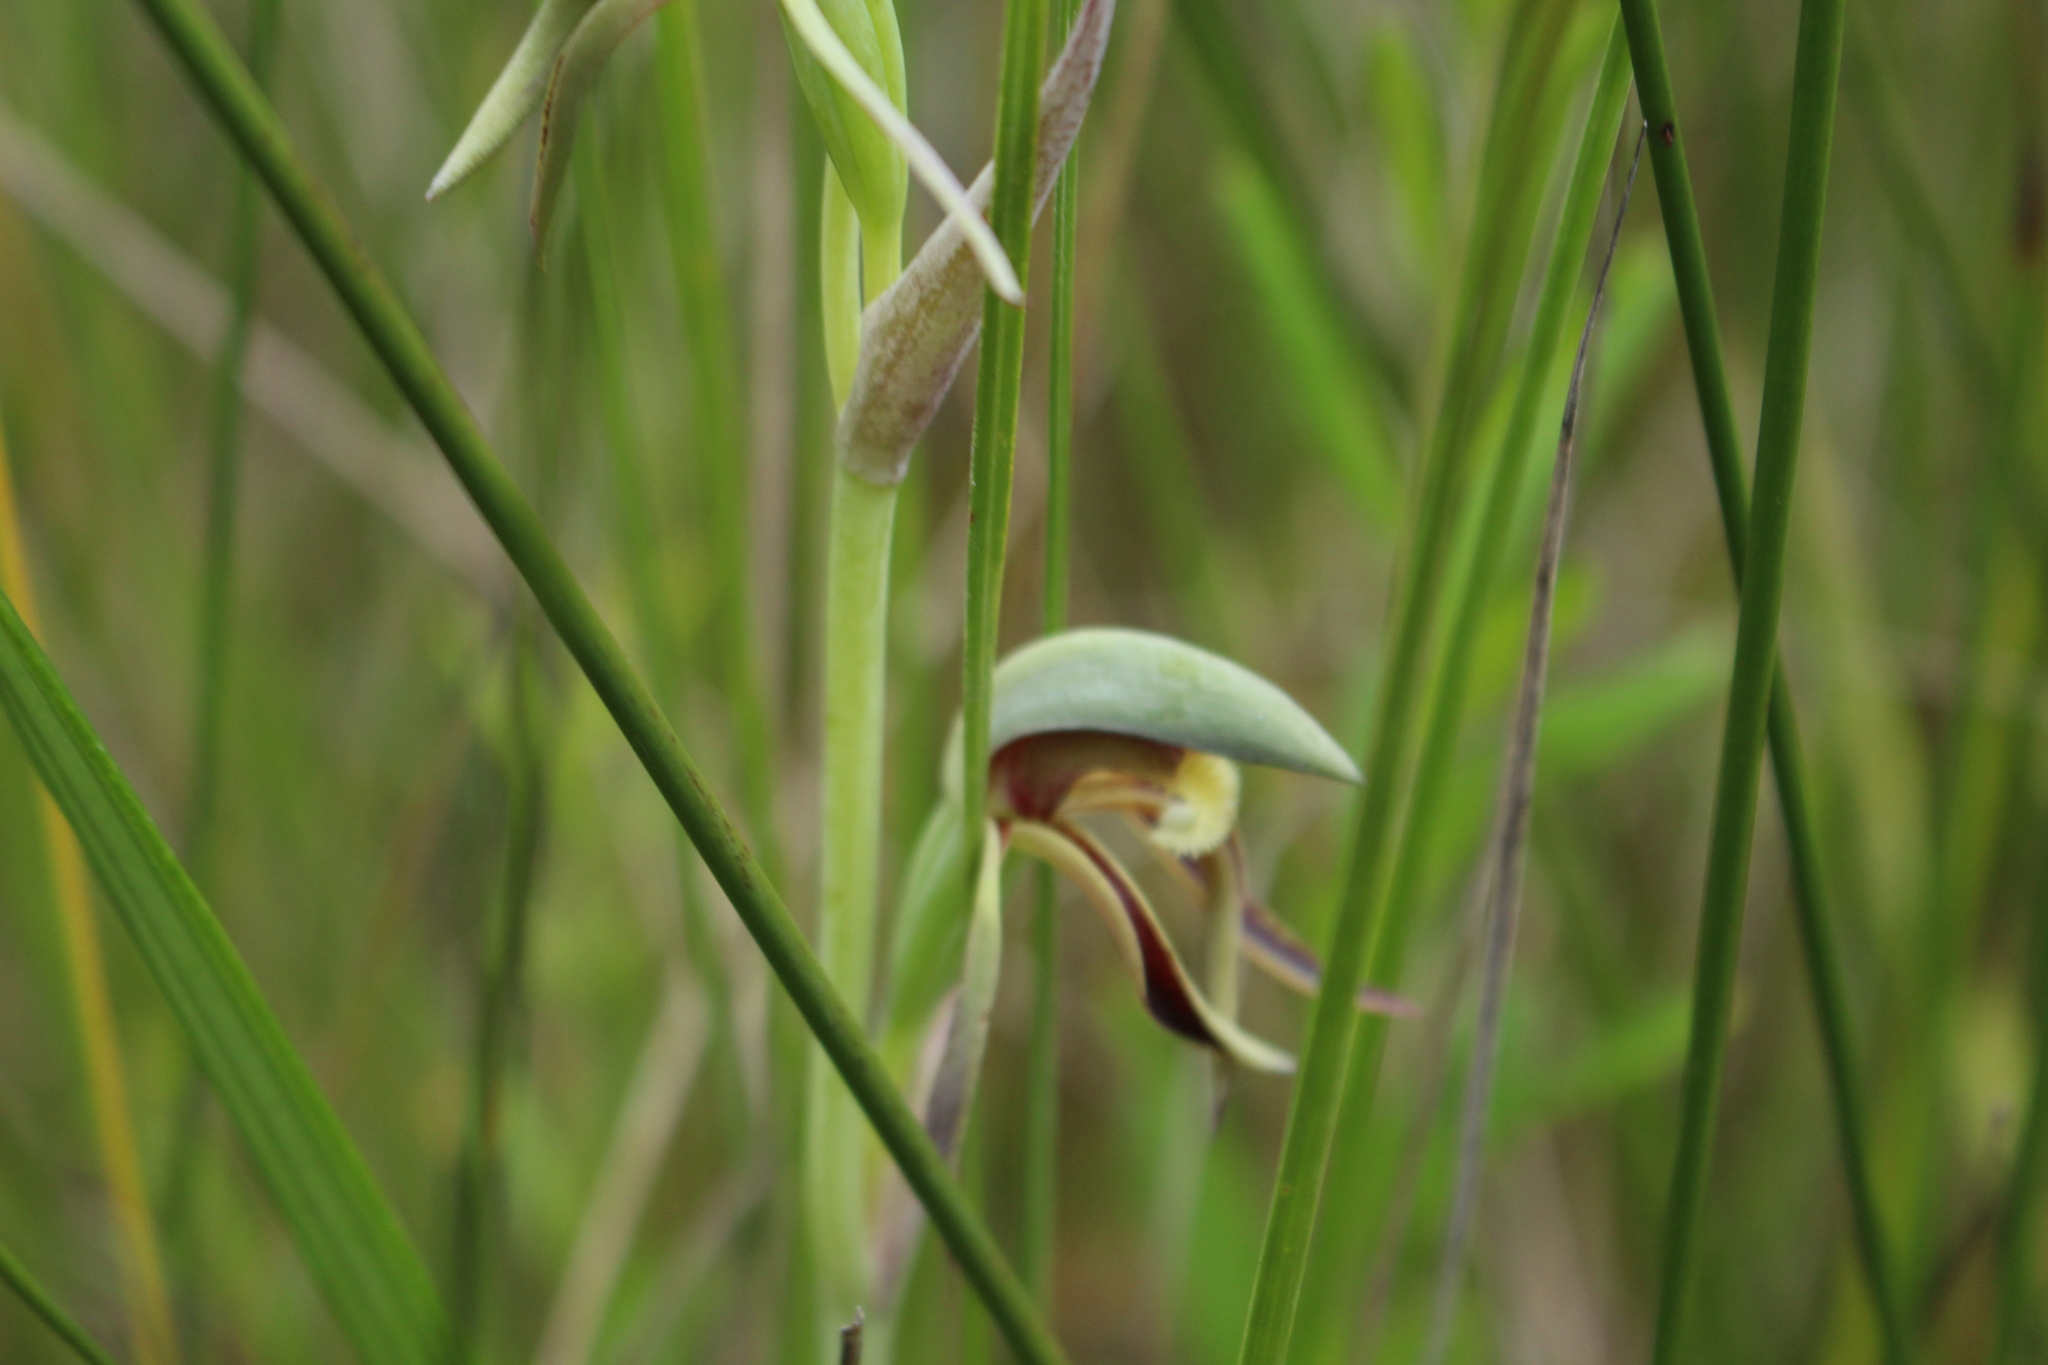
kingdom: Plantae
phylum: Tracheophyta
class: Liliopsida
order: Asparagales
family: Orchidaceae
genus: Lyperanthus
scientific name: Lyperanthus serratus
